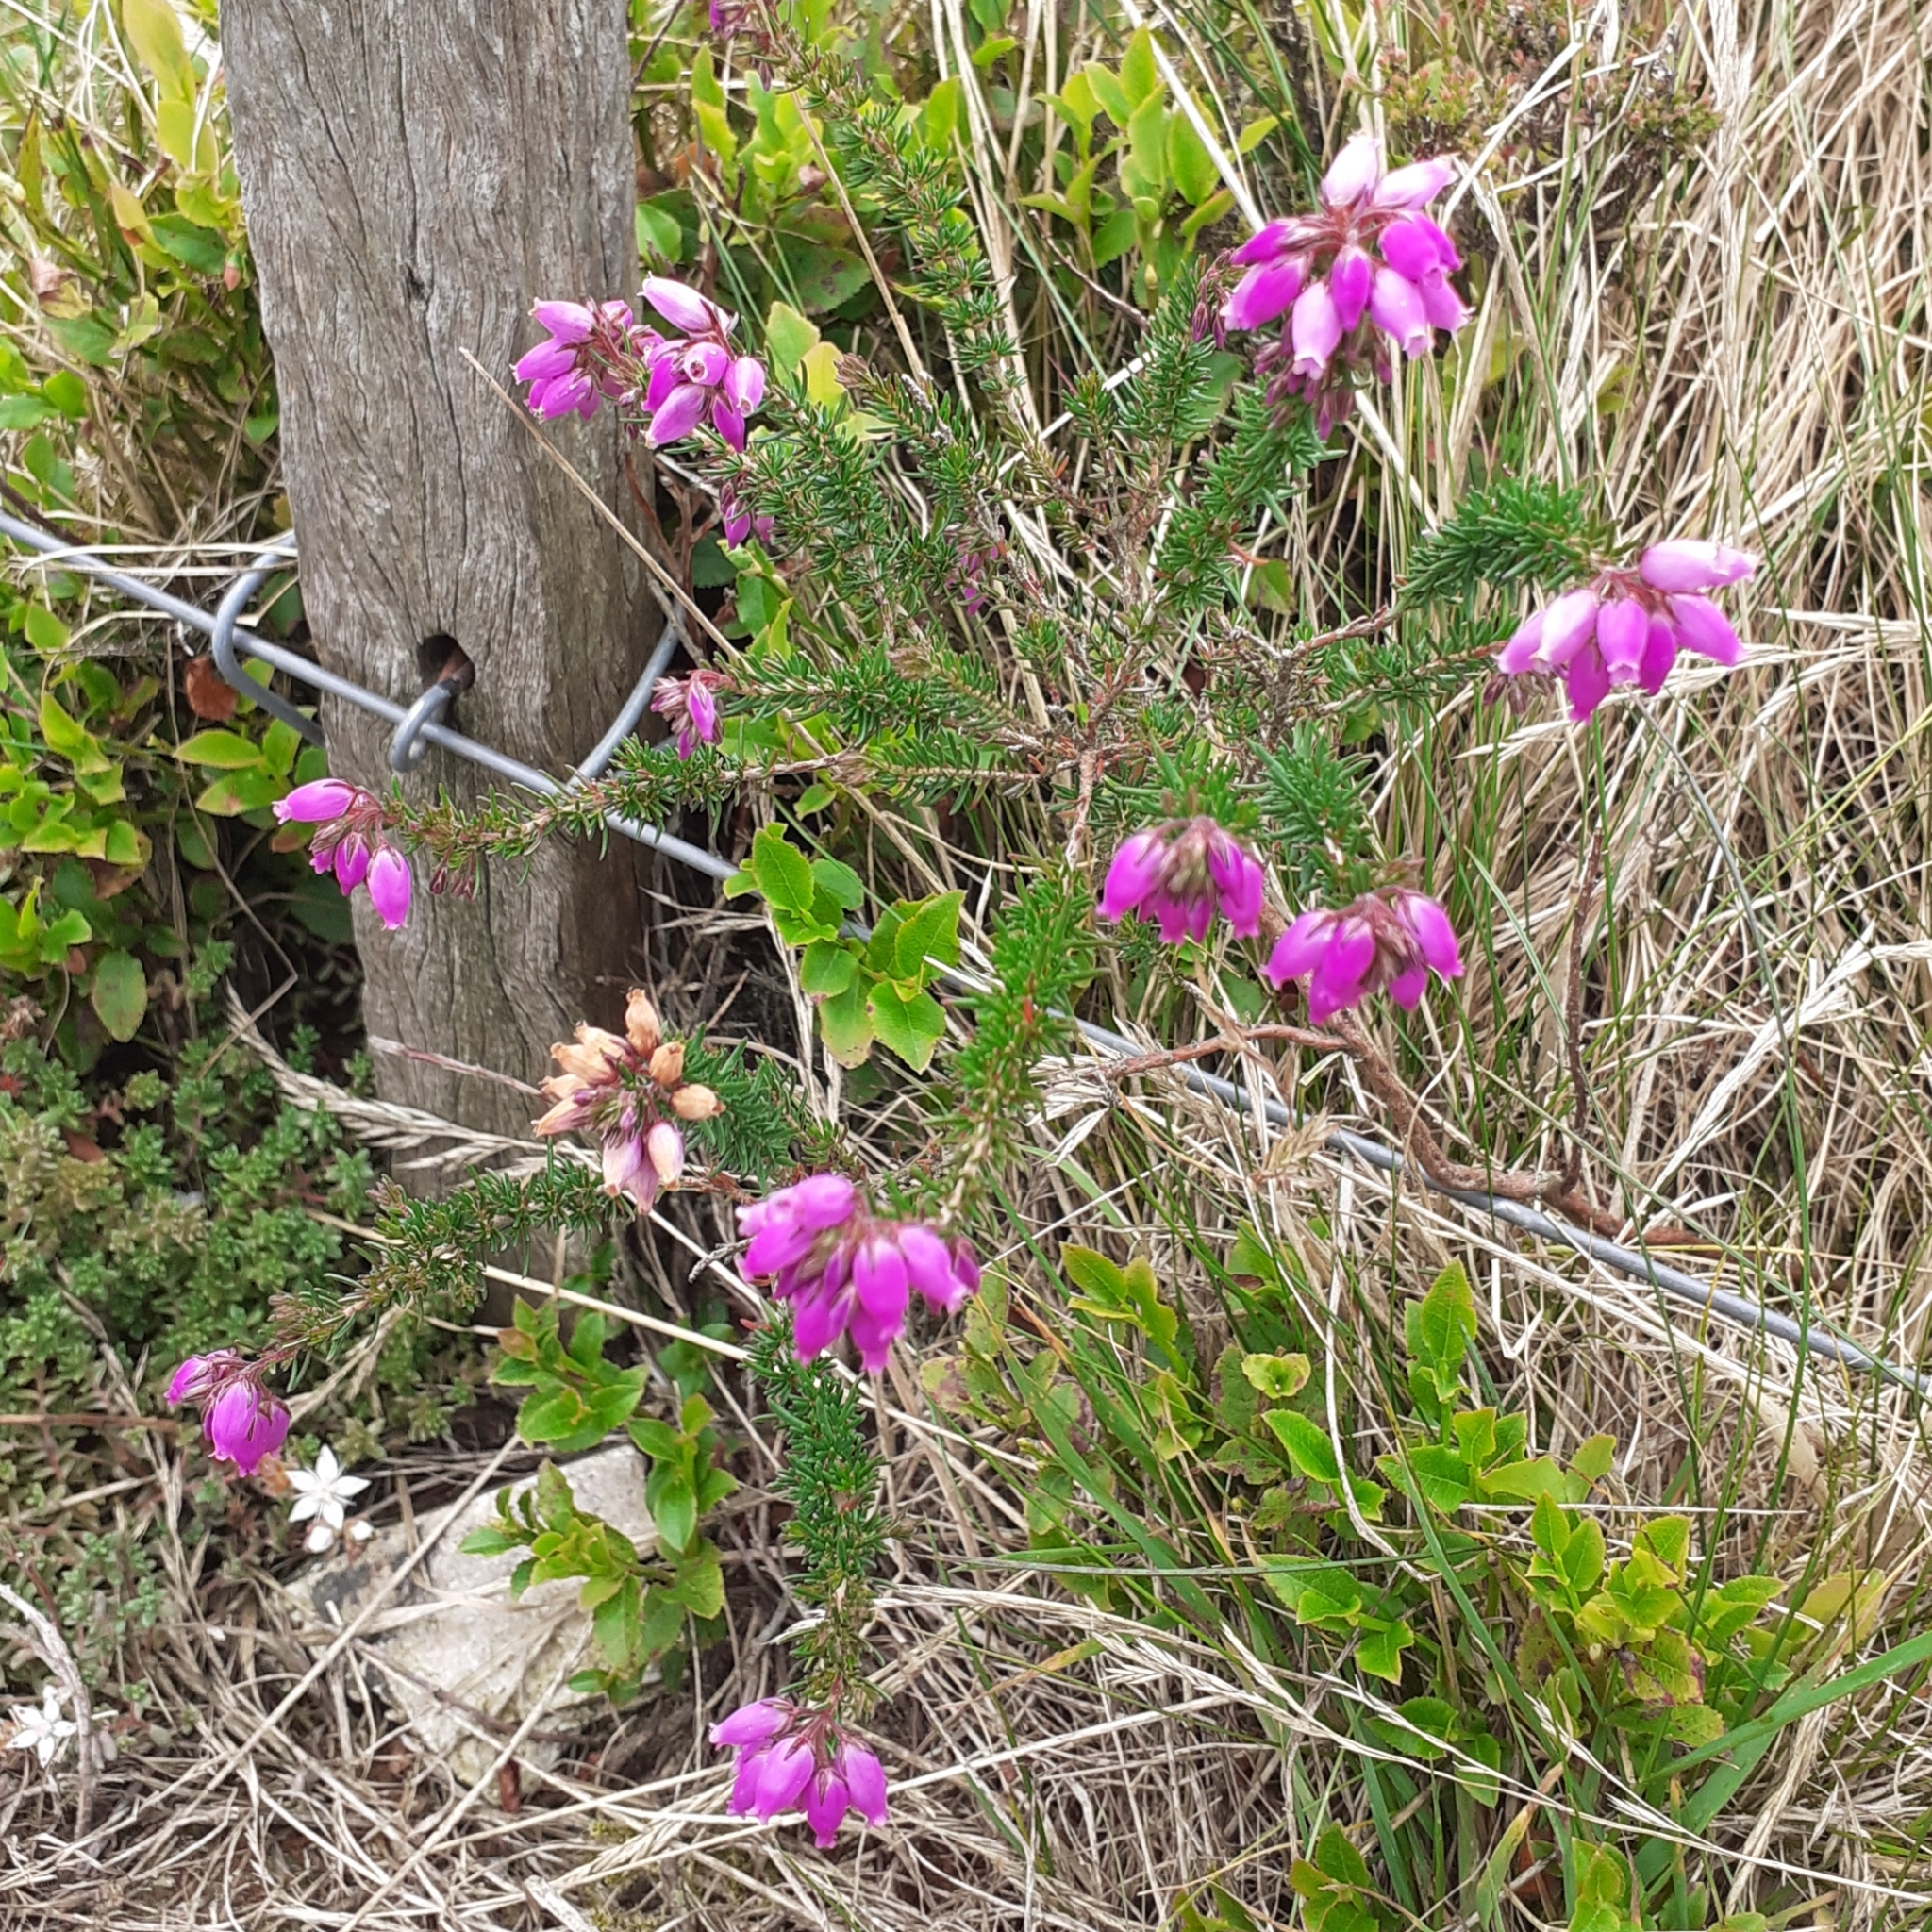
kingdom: Plantae
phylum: Tracheophyta
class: Magnoliopsida
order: Ericales
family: Ericaceae
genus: Erica
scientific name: Erica cinerea
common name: Bell heather
